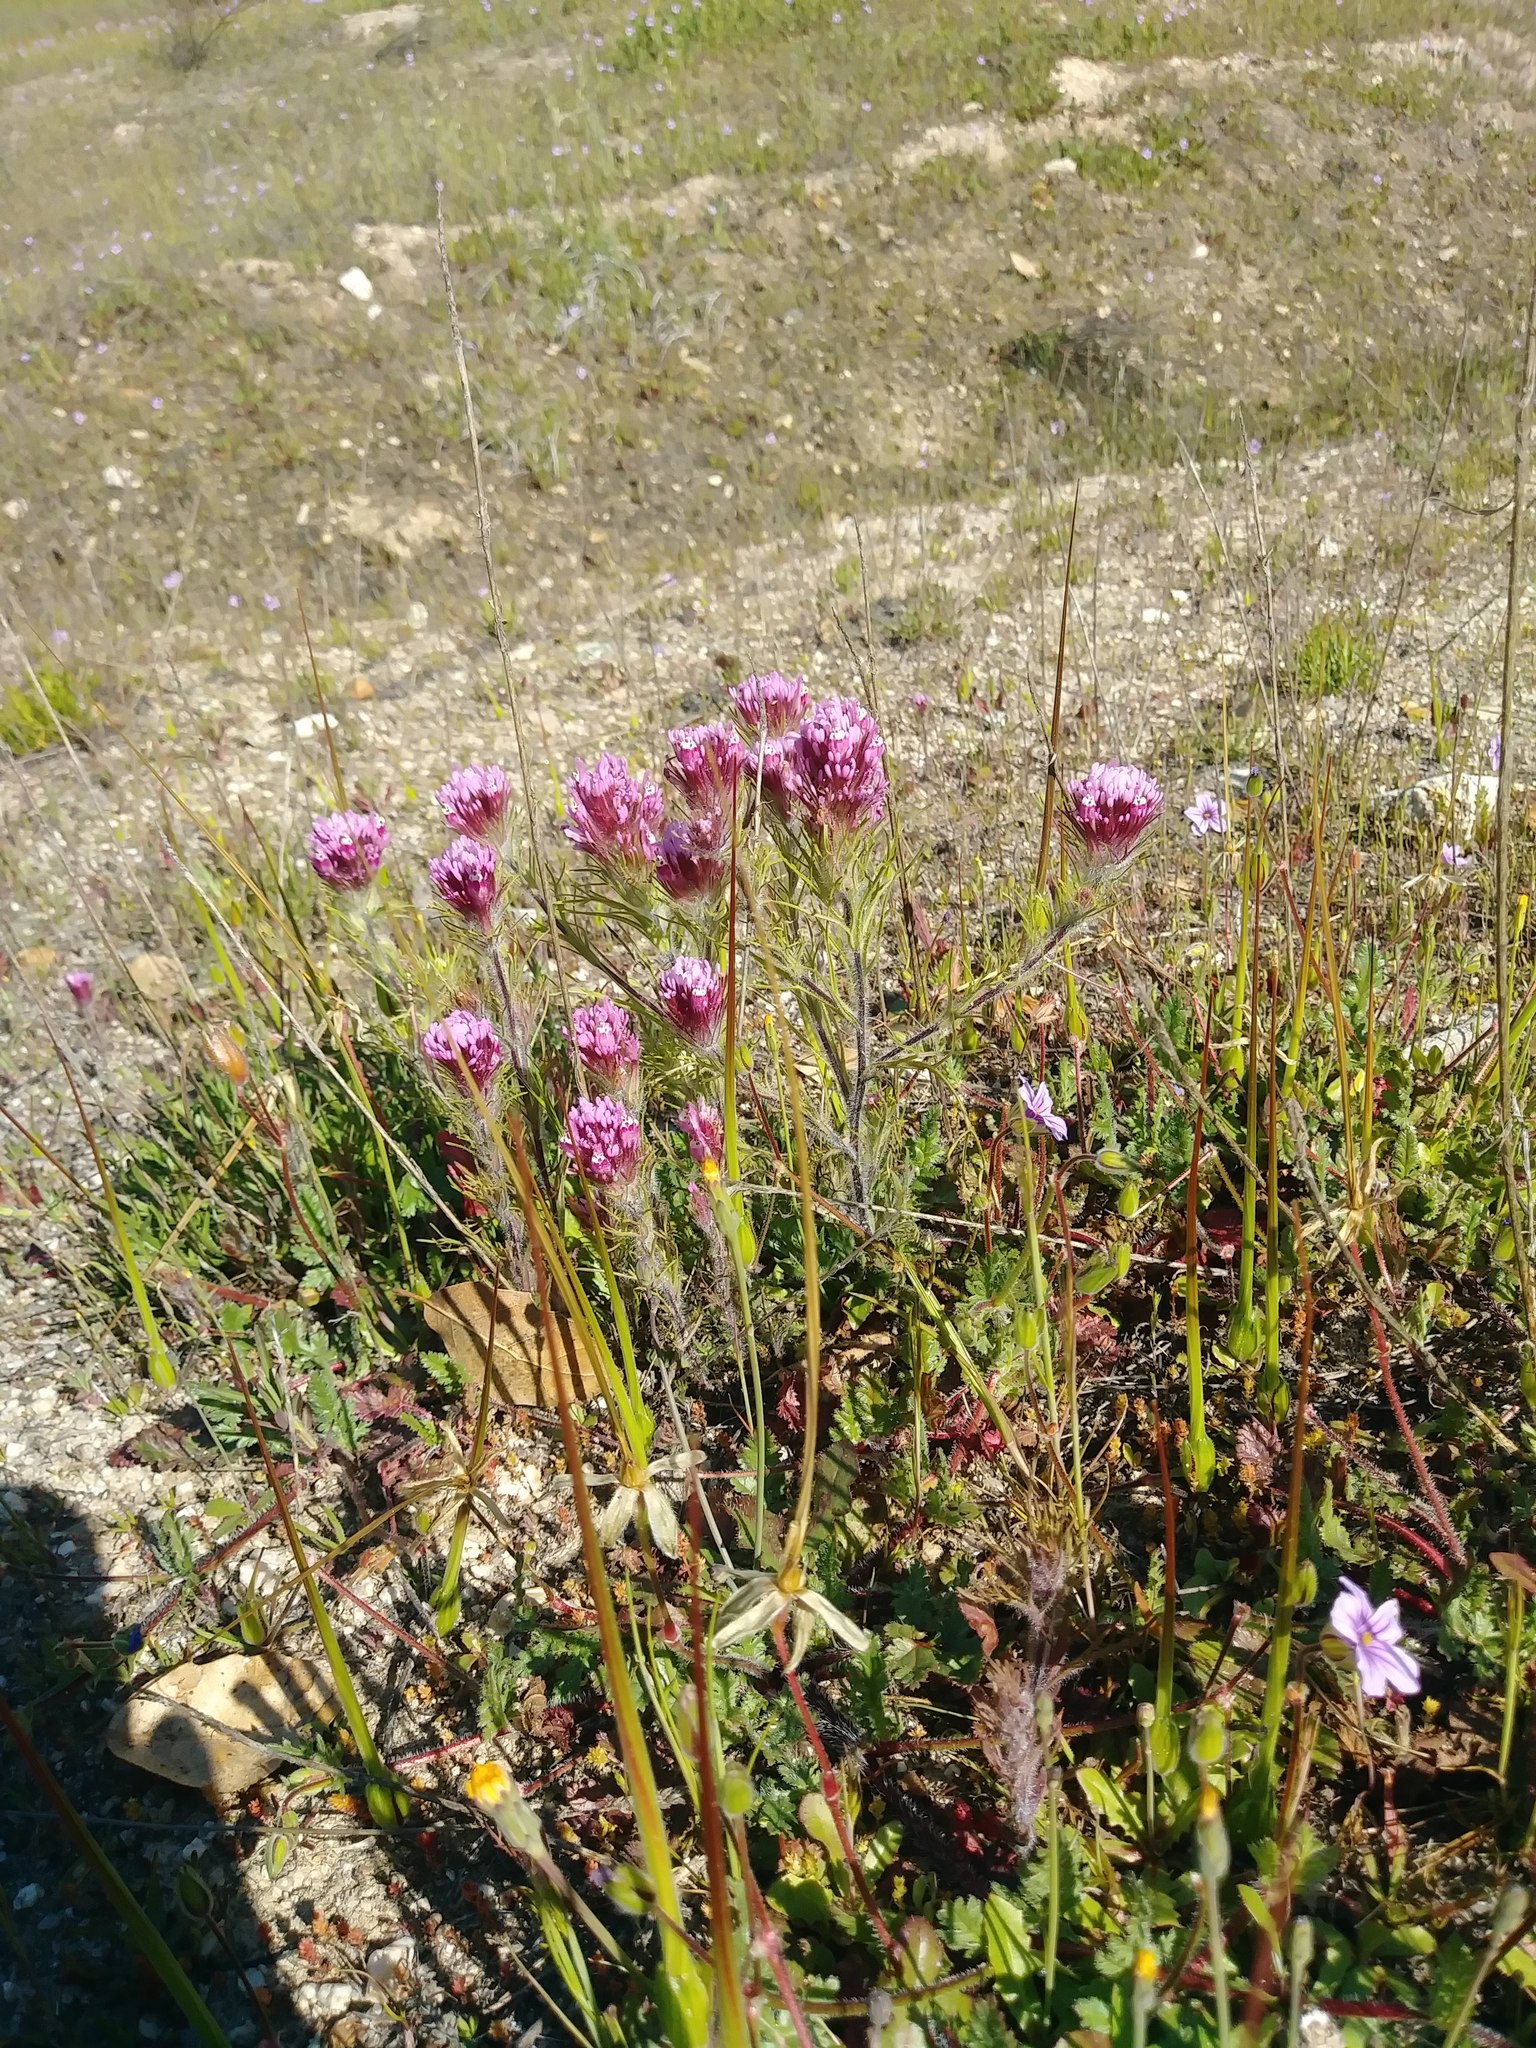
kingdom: Plantae
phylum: Tracheophyta
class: Magnoliopsida
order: Lamiales
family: Orobanchaceae
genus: Castilleja
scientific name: Castilleja exserta
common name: Purple owl-clover
